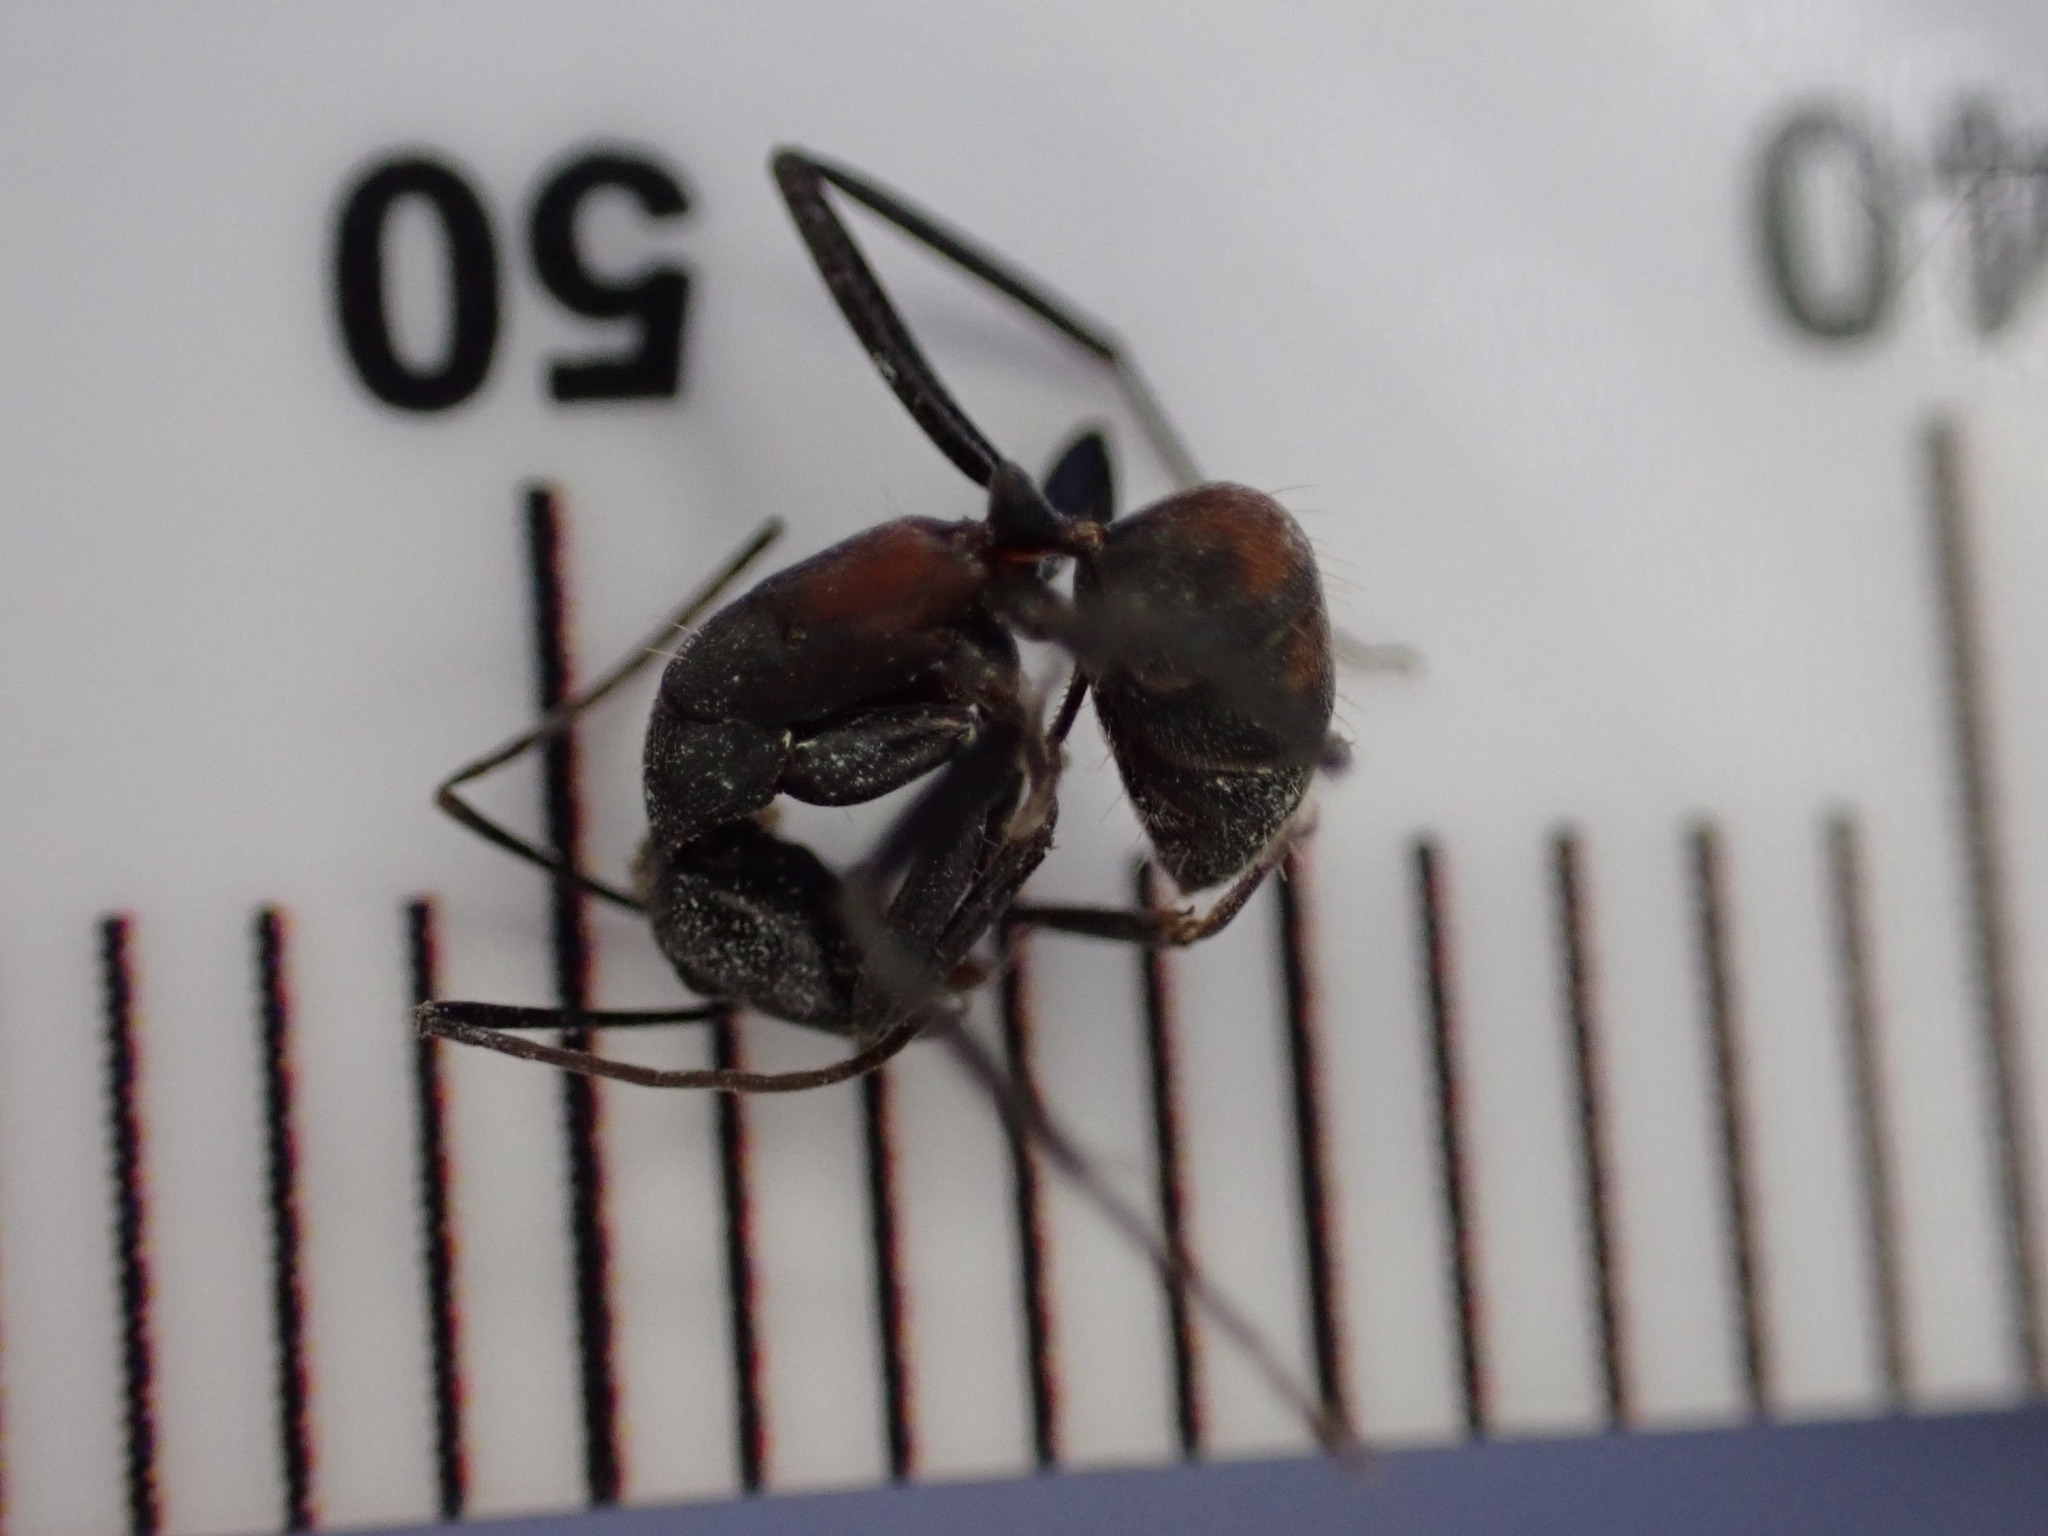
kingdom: Animalia
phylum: Arthropoda
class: Insecta
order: Hymenoptera
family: Formicidae
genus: Camponotus
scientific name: Camponotus cruentatus
